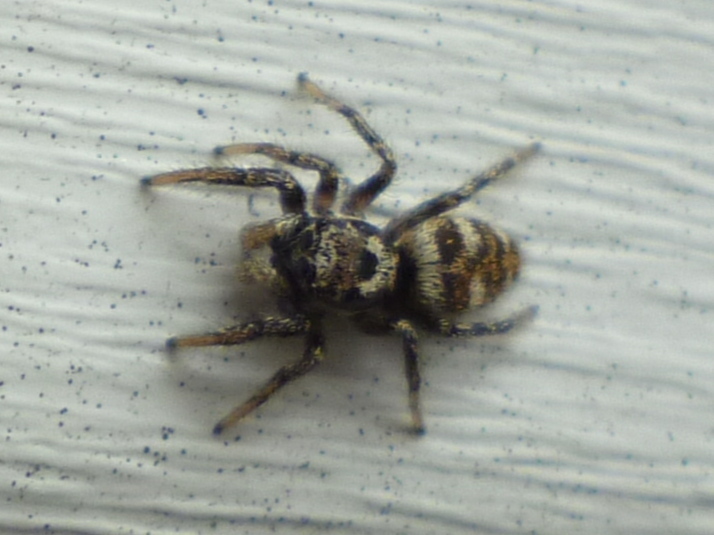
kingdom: Animalia
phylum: Arthropoda
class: Arachnida
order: Araneae
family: Salticidae
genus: Salticus
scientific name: Salticus scenicus
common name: Zebra jumper
